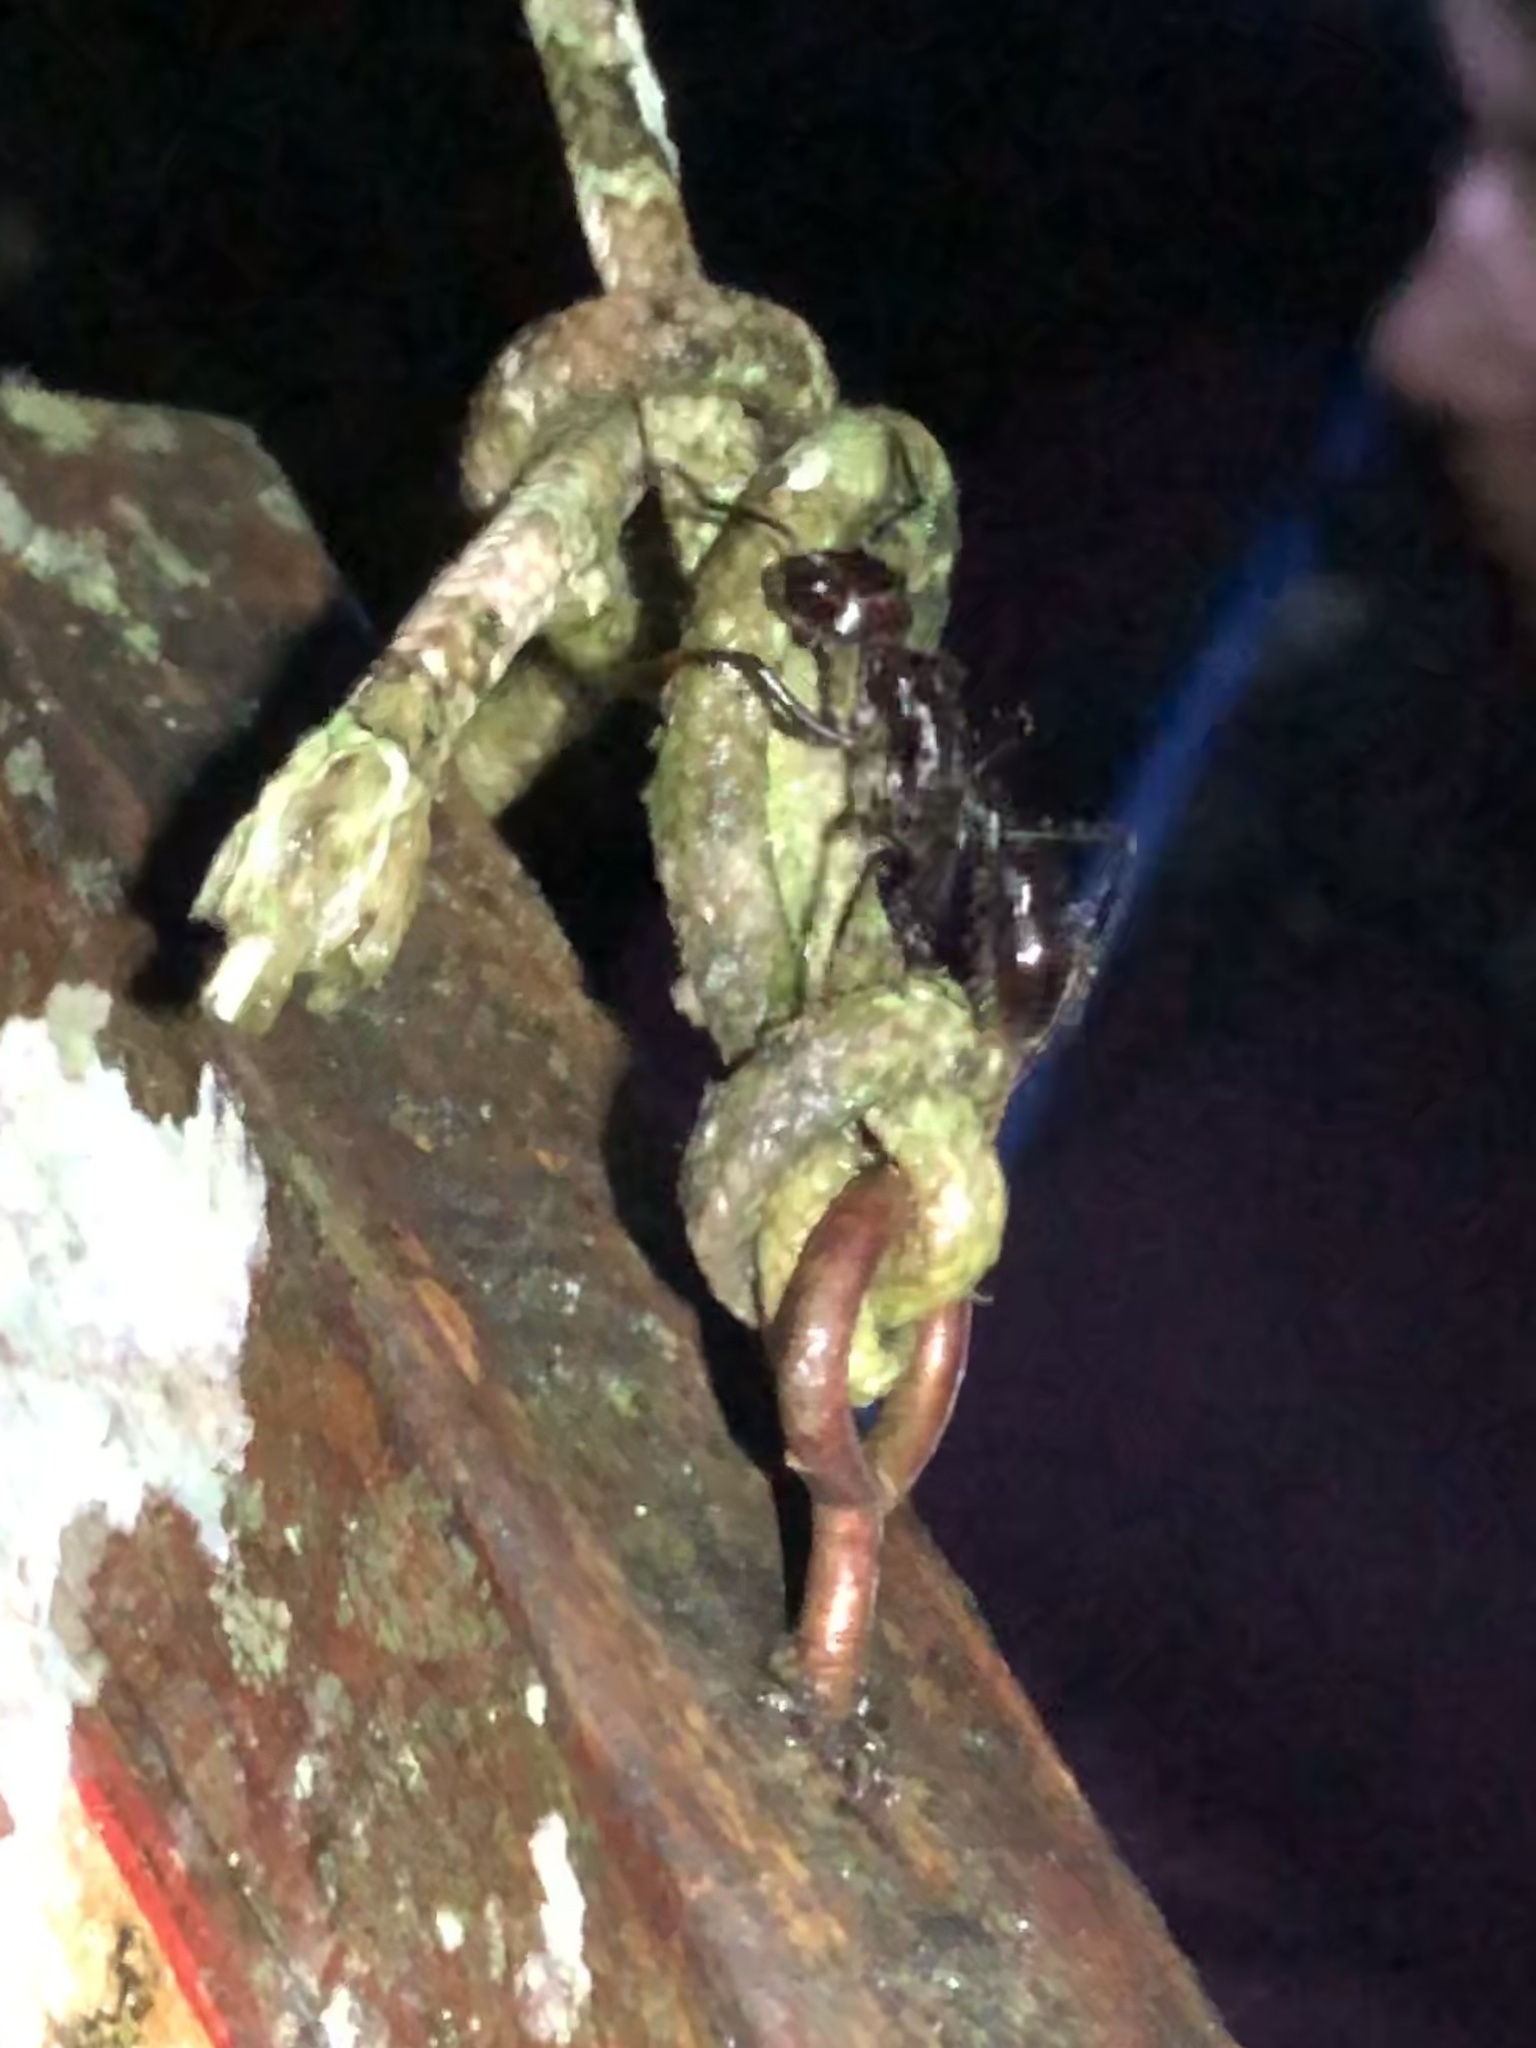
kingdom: Animalia
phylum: Arthropoda
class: Insecta
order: Hymenoptera
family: Formicidae
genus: Paraponera
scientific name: Paraponera clavata
